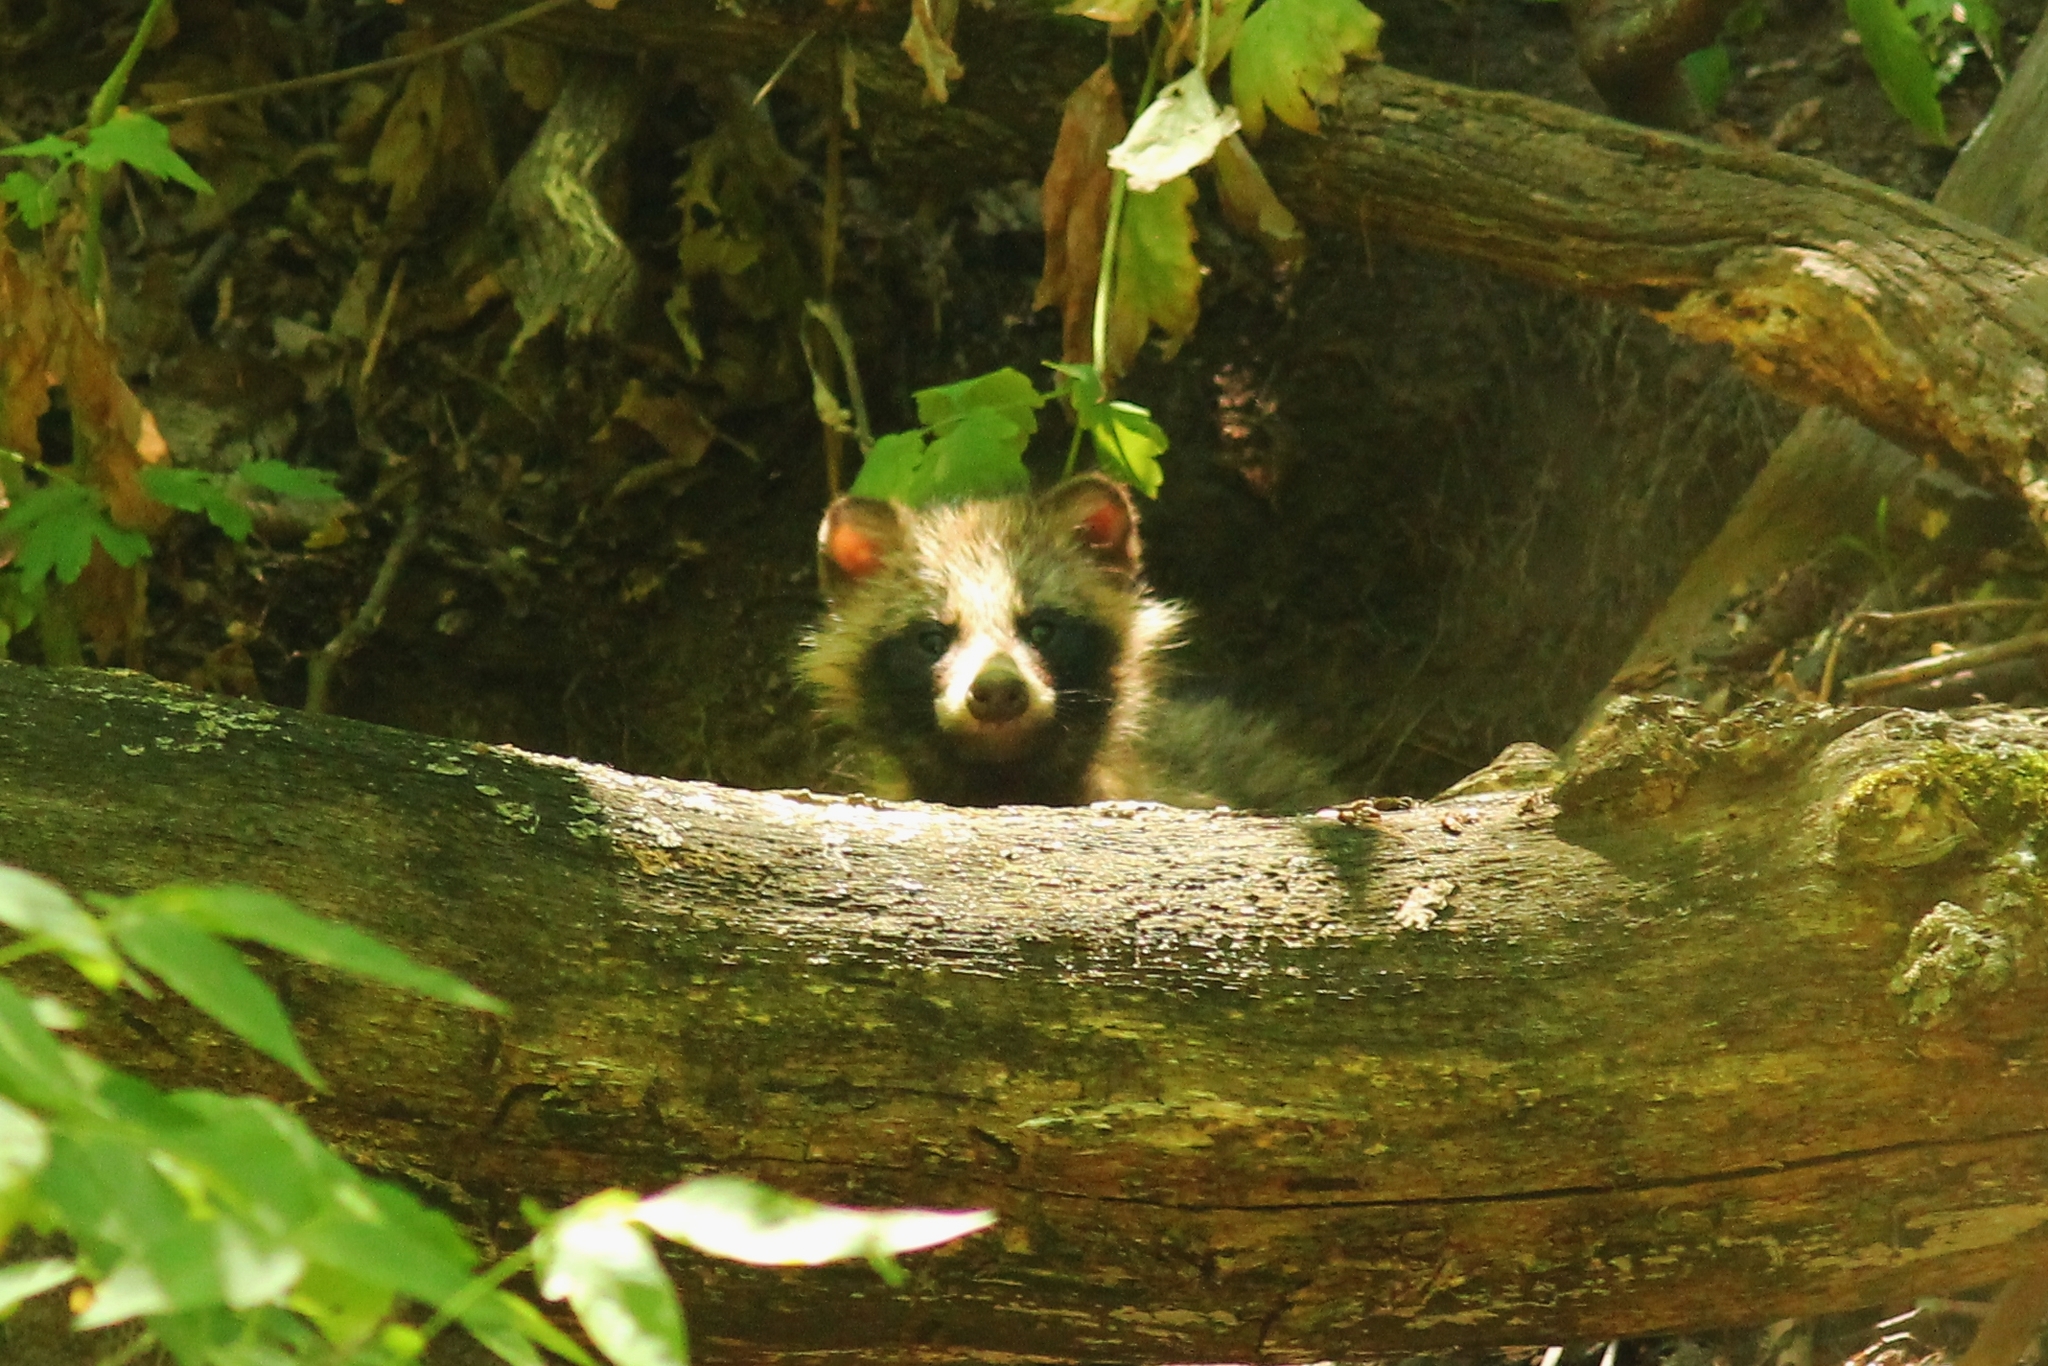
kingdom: Animalia
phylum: Chordata
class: Mammalia
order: Carnivora
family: Canidae
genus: Nyctereutes
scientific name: Nyctereutes procyonoides
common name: Raccoon dog
